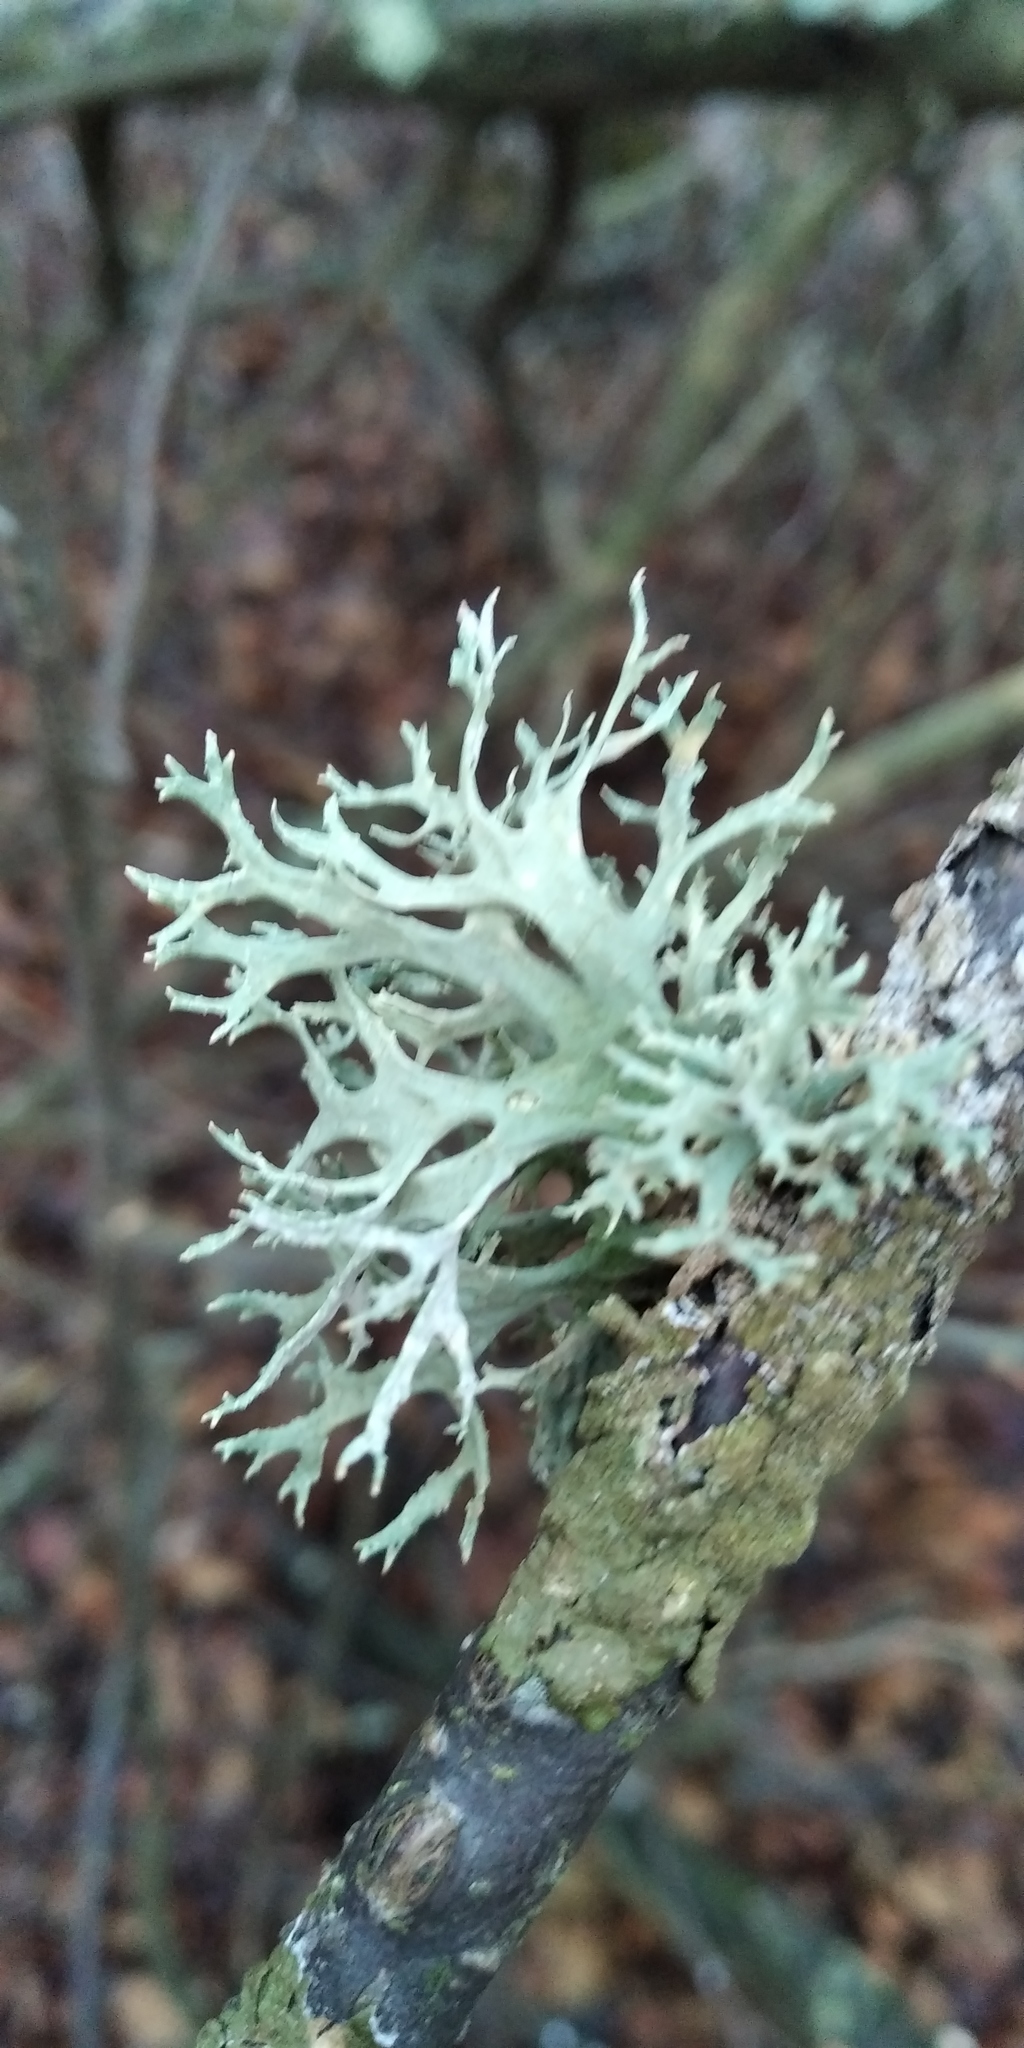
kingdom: Fungi
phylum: Ascomycota
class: Lecanoromycetes
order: Lecanorales
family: Parmeliaceae
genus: Evernia
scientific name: Evernia prunastri
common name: Oak moss
